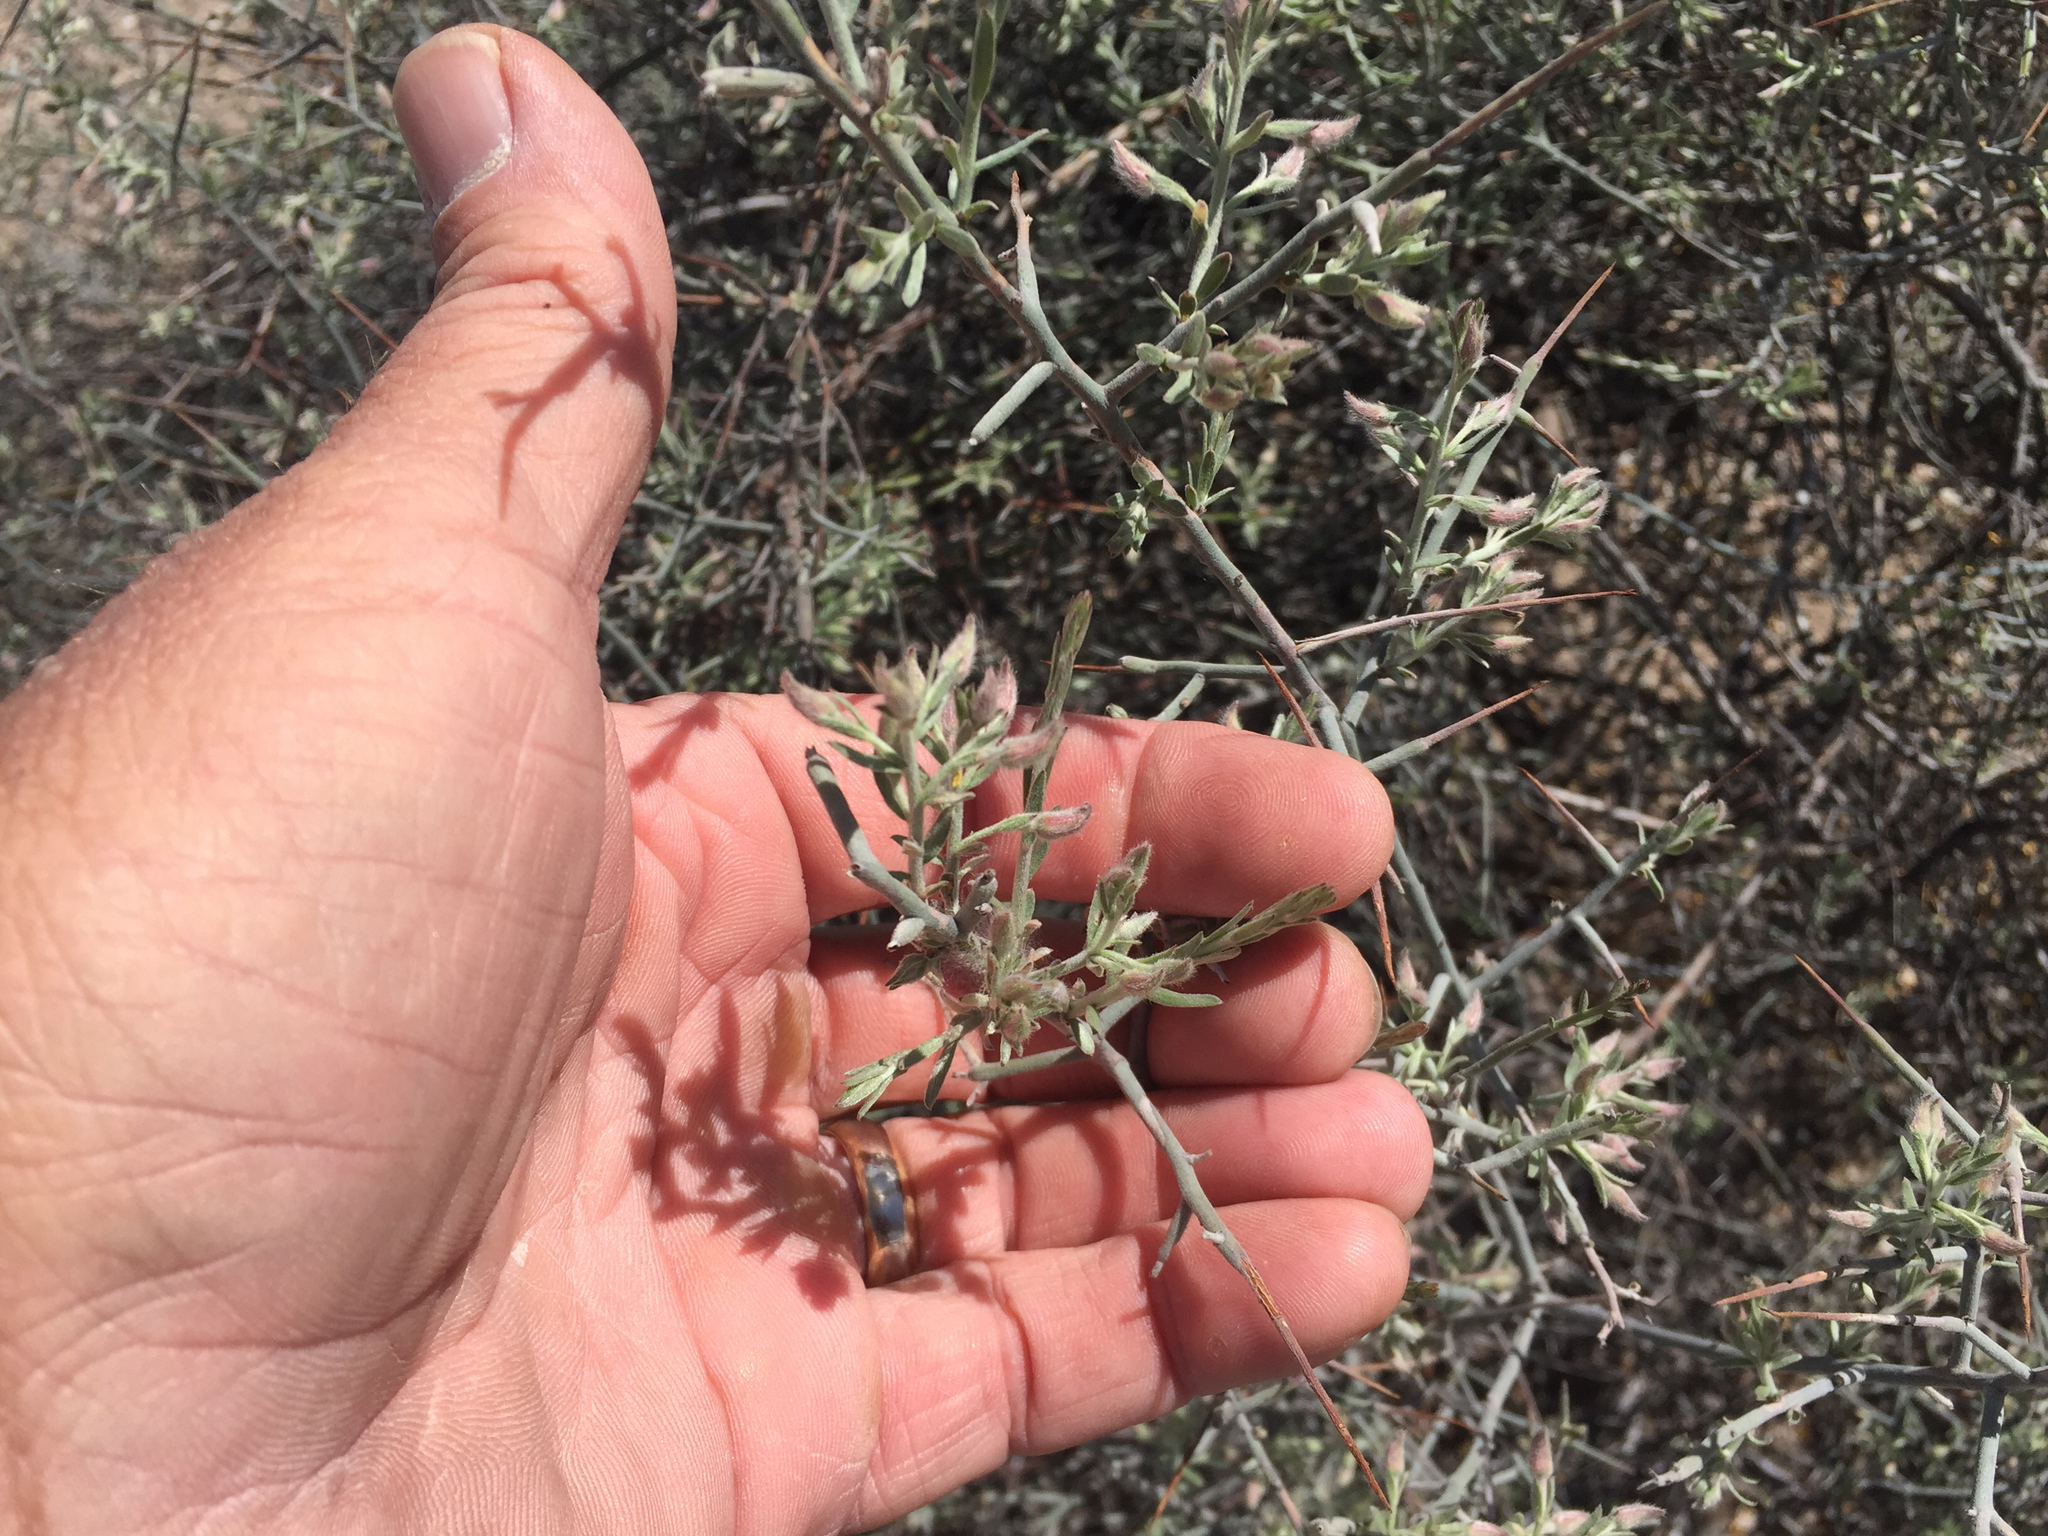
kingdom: Plantae
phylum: Tracheophyta
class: Magnoliopsida
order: Zygophyllales
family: Krameriaceae
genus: Krameria
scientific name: Krameria erecta
